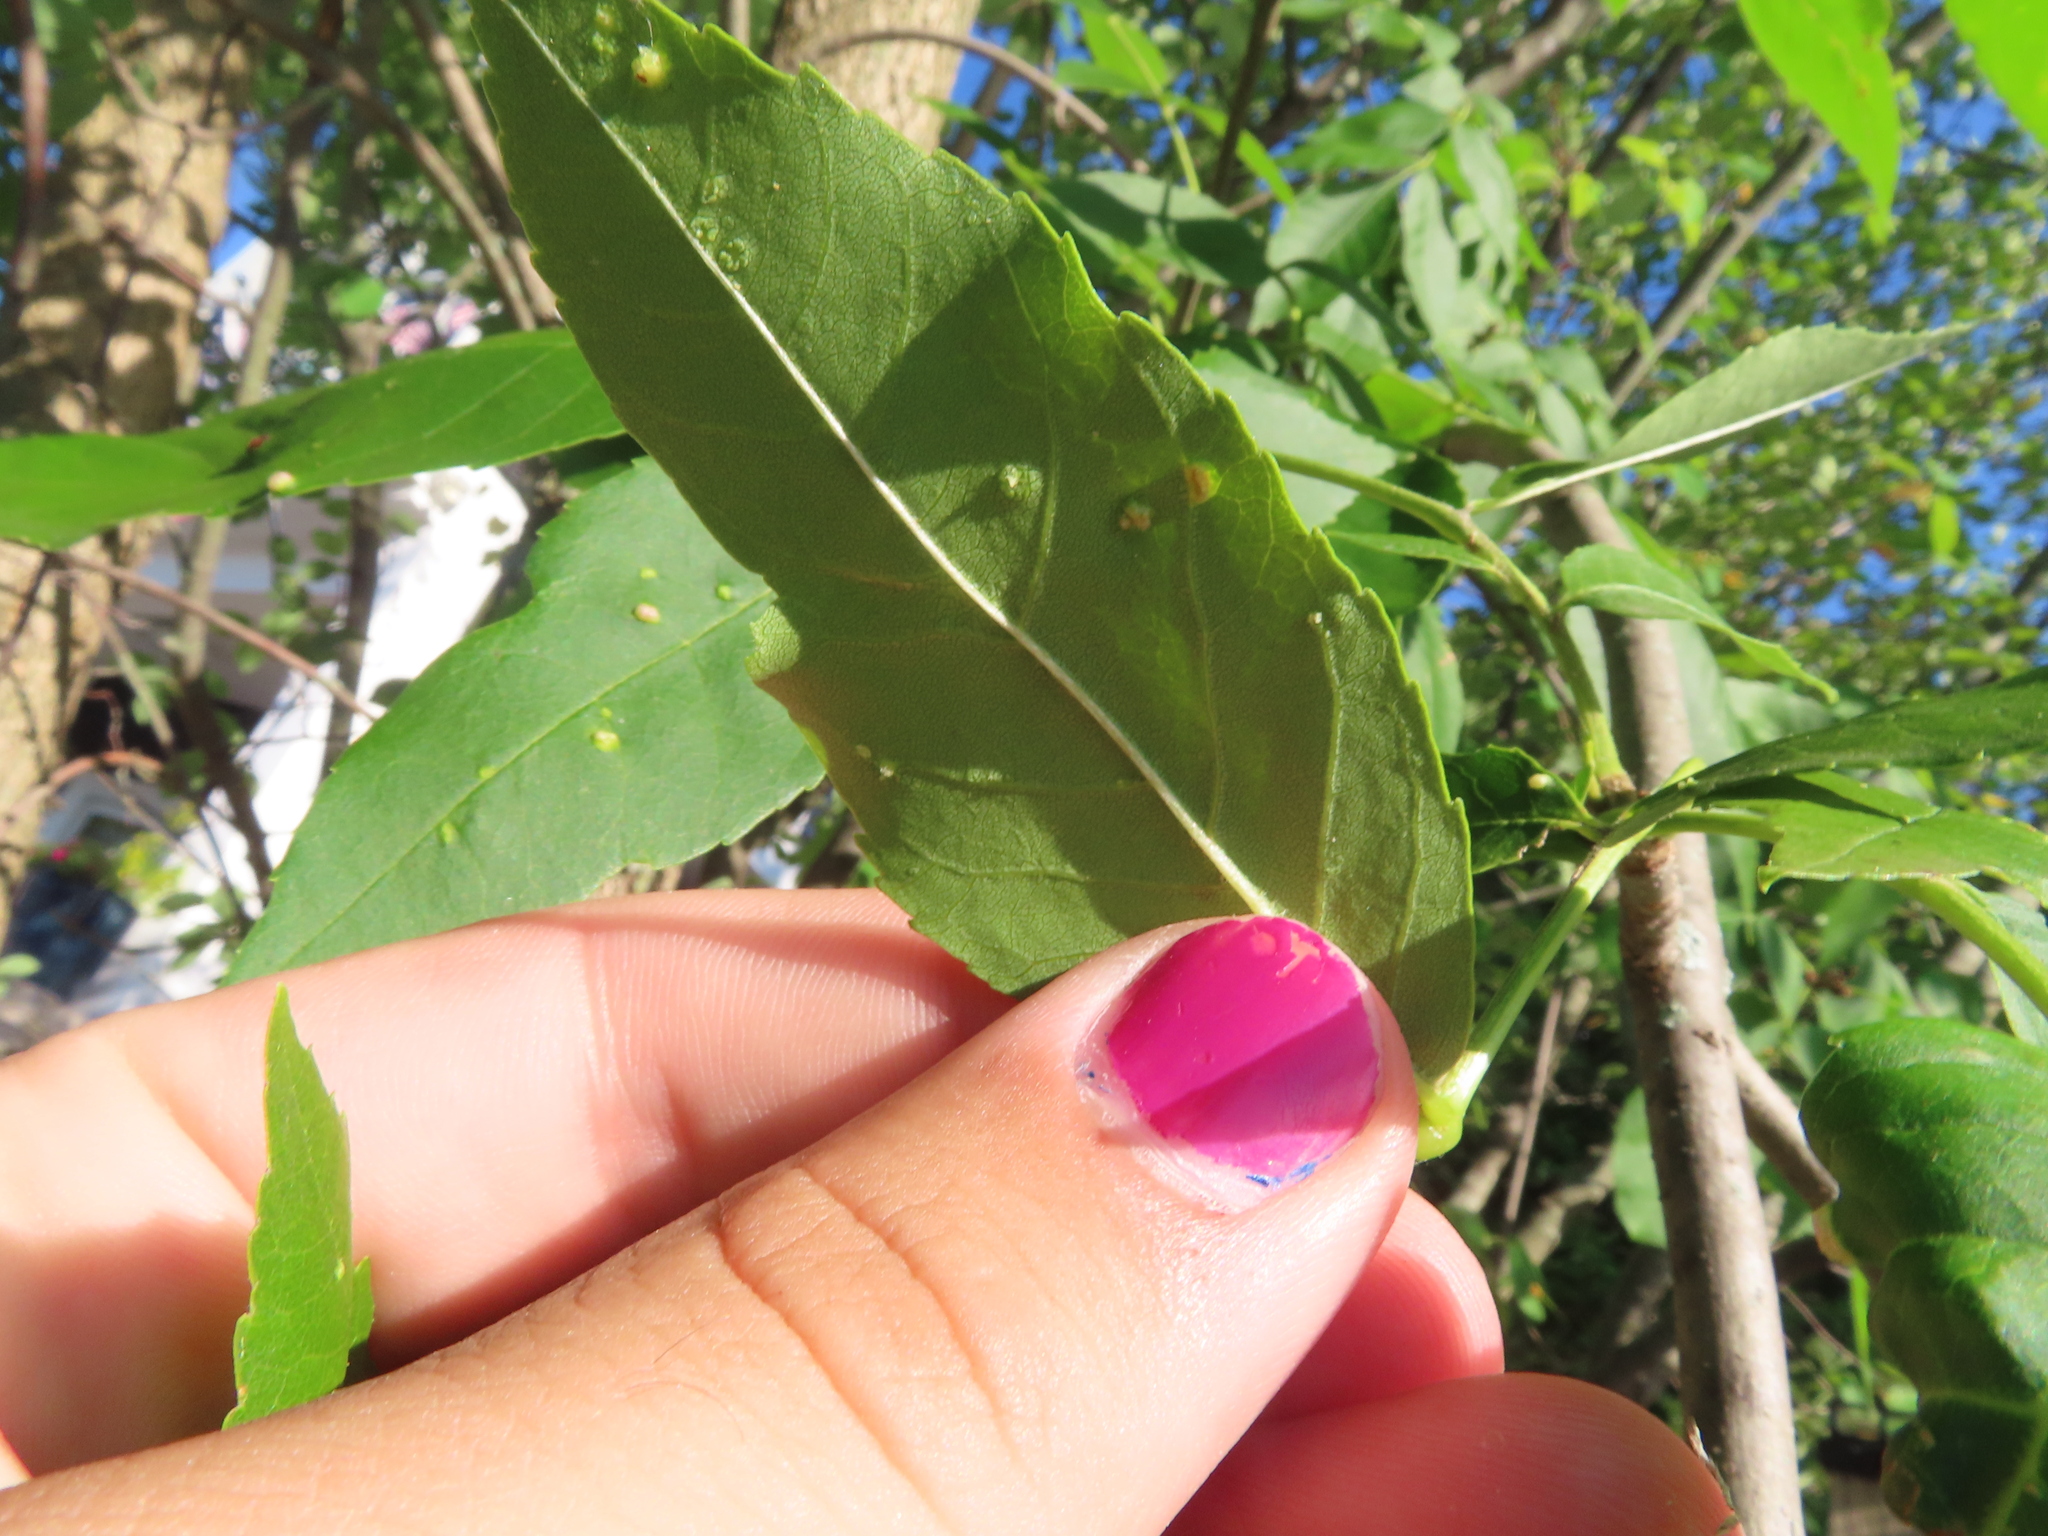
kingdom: Animalia
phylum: Arthropoda
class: Arachnida
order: Trombidiformes
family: Eriophyidae
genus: Aceria
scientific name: Aceria fraxinicola
